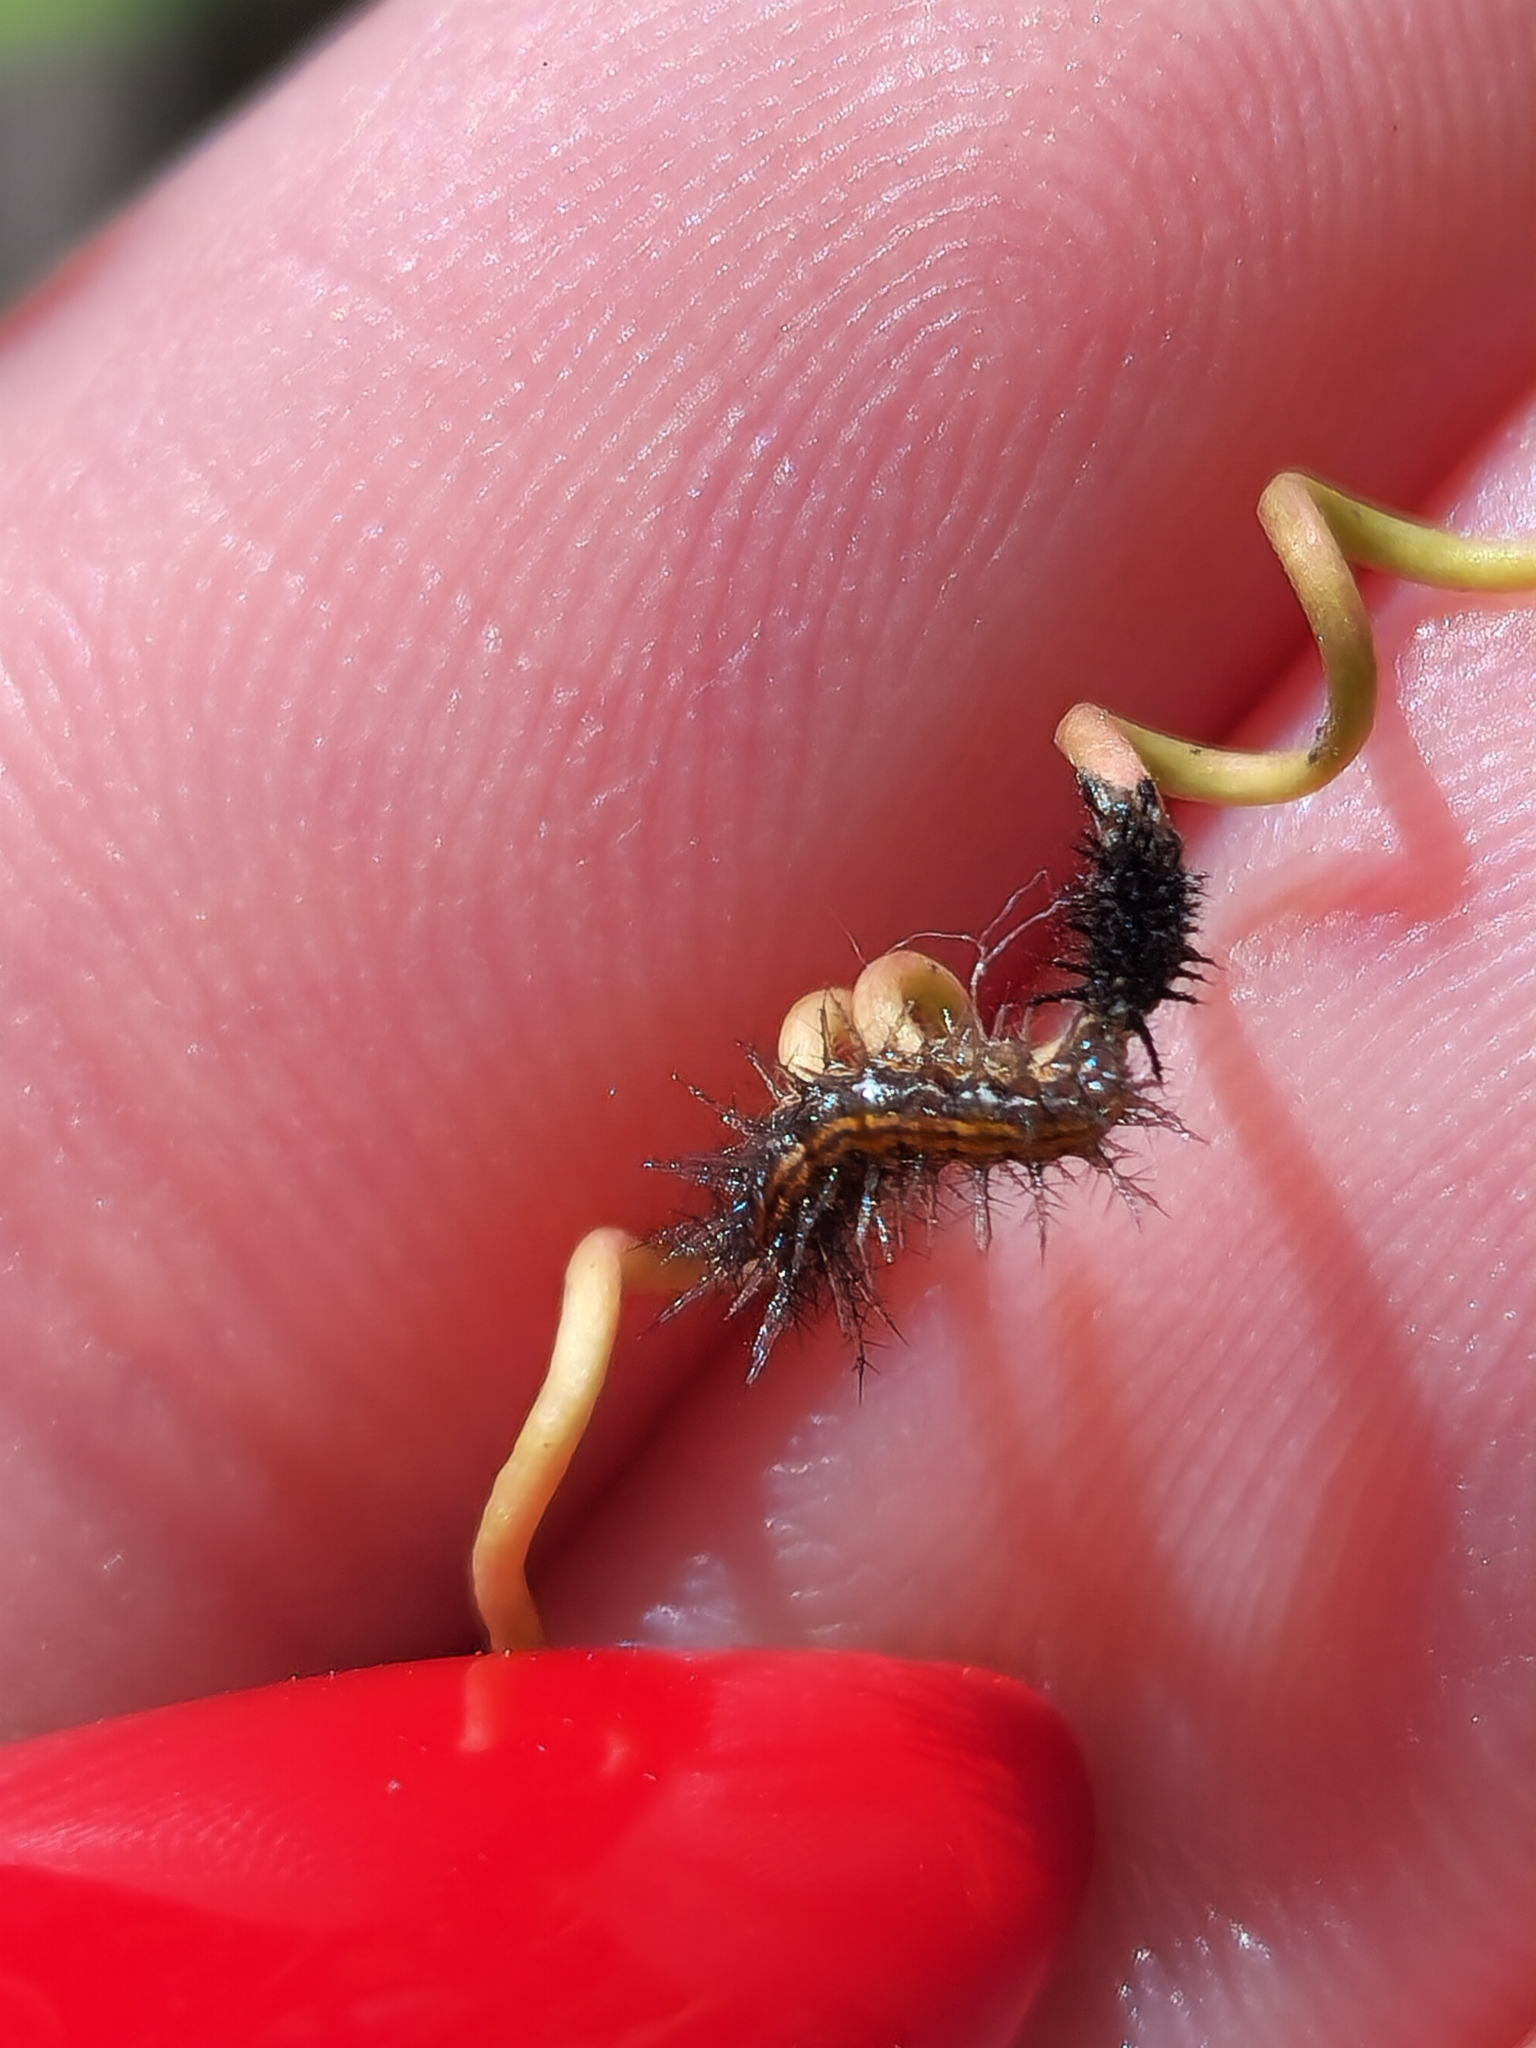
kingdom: Animalia
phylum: Arthropoda
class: Insecta
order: Lepidoptera
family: Nymphalidae
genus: Dione
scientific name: Dione vanillae
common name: Gulf fritillary
